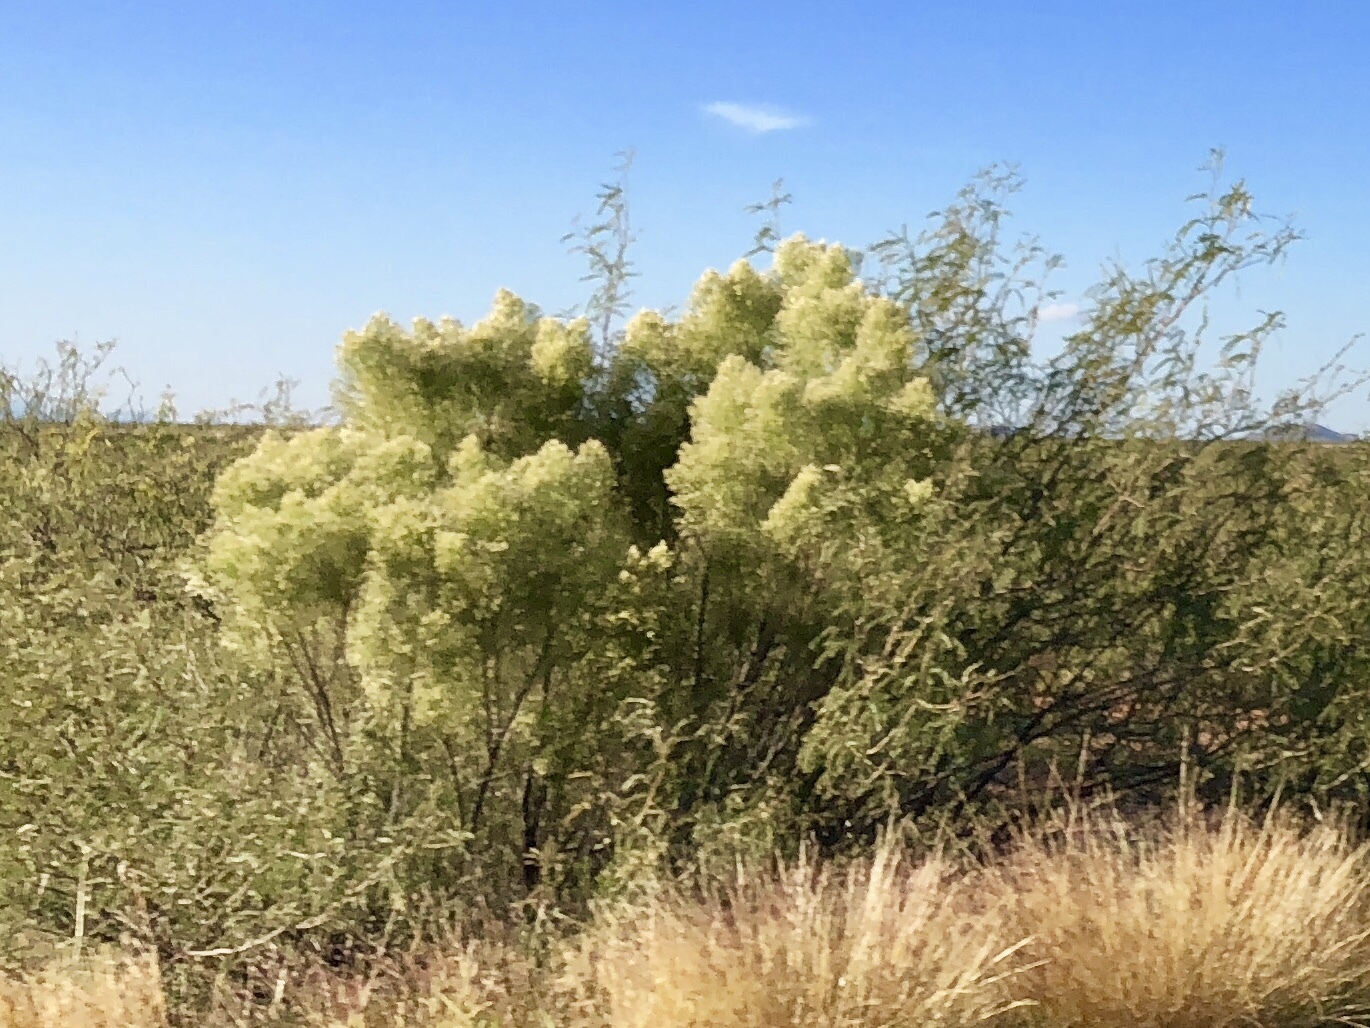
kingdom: Plantae
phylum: Tracheophyta
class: Magnoliopsida
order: Asterales
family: Asteraceae
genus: Baccharis
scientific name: Baccharis sarothroides
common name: Desert-broom
